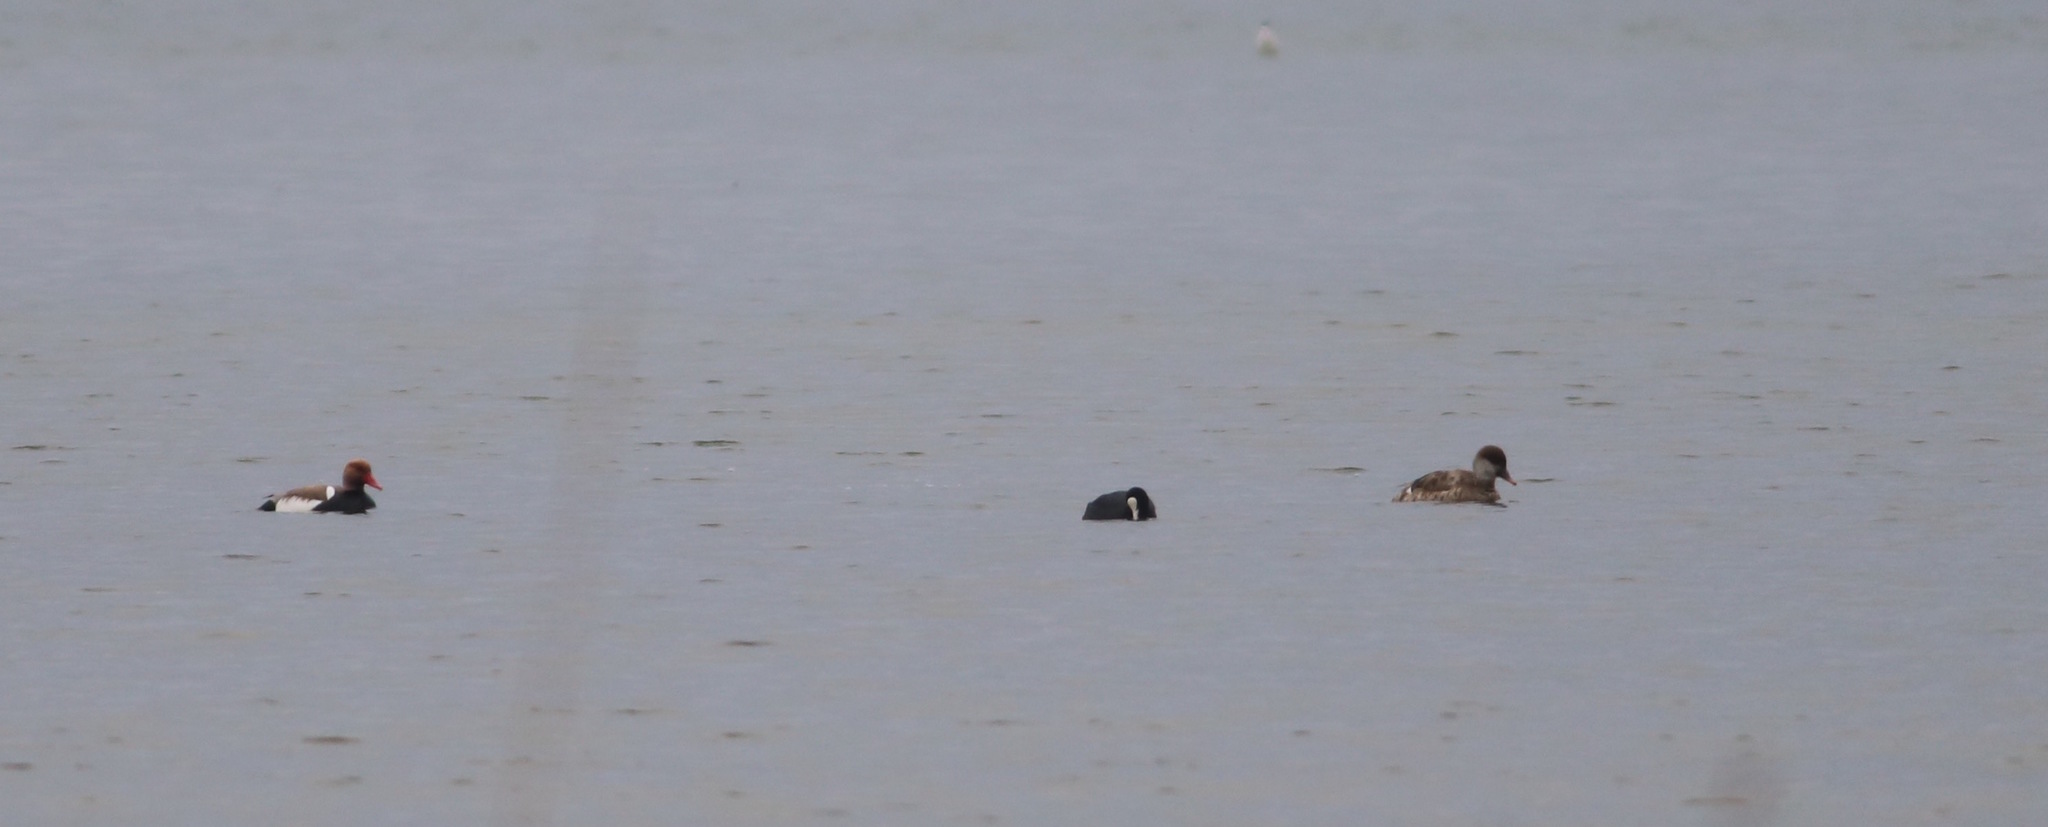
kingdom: Animalia
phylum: Chordata
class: Aves
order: Anseriformes
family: Anatidae
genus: Netta
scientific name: Netta rufina
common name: Red-crested pochard
